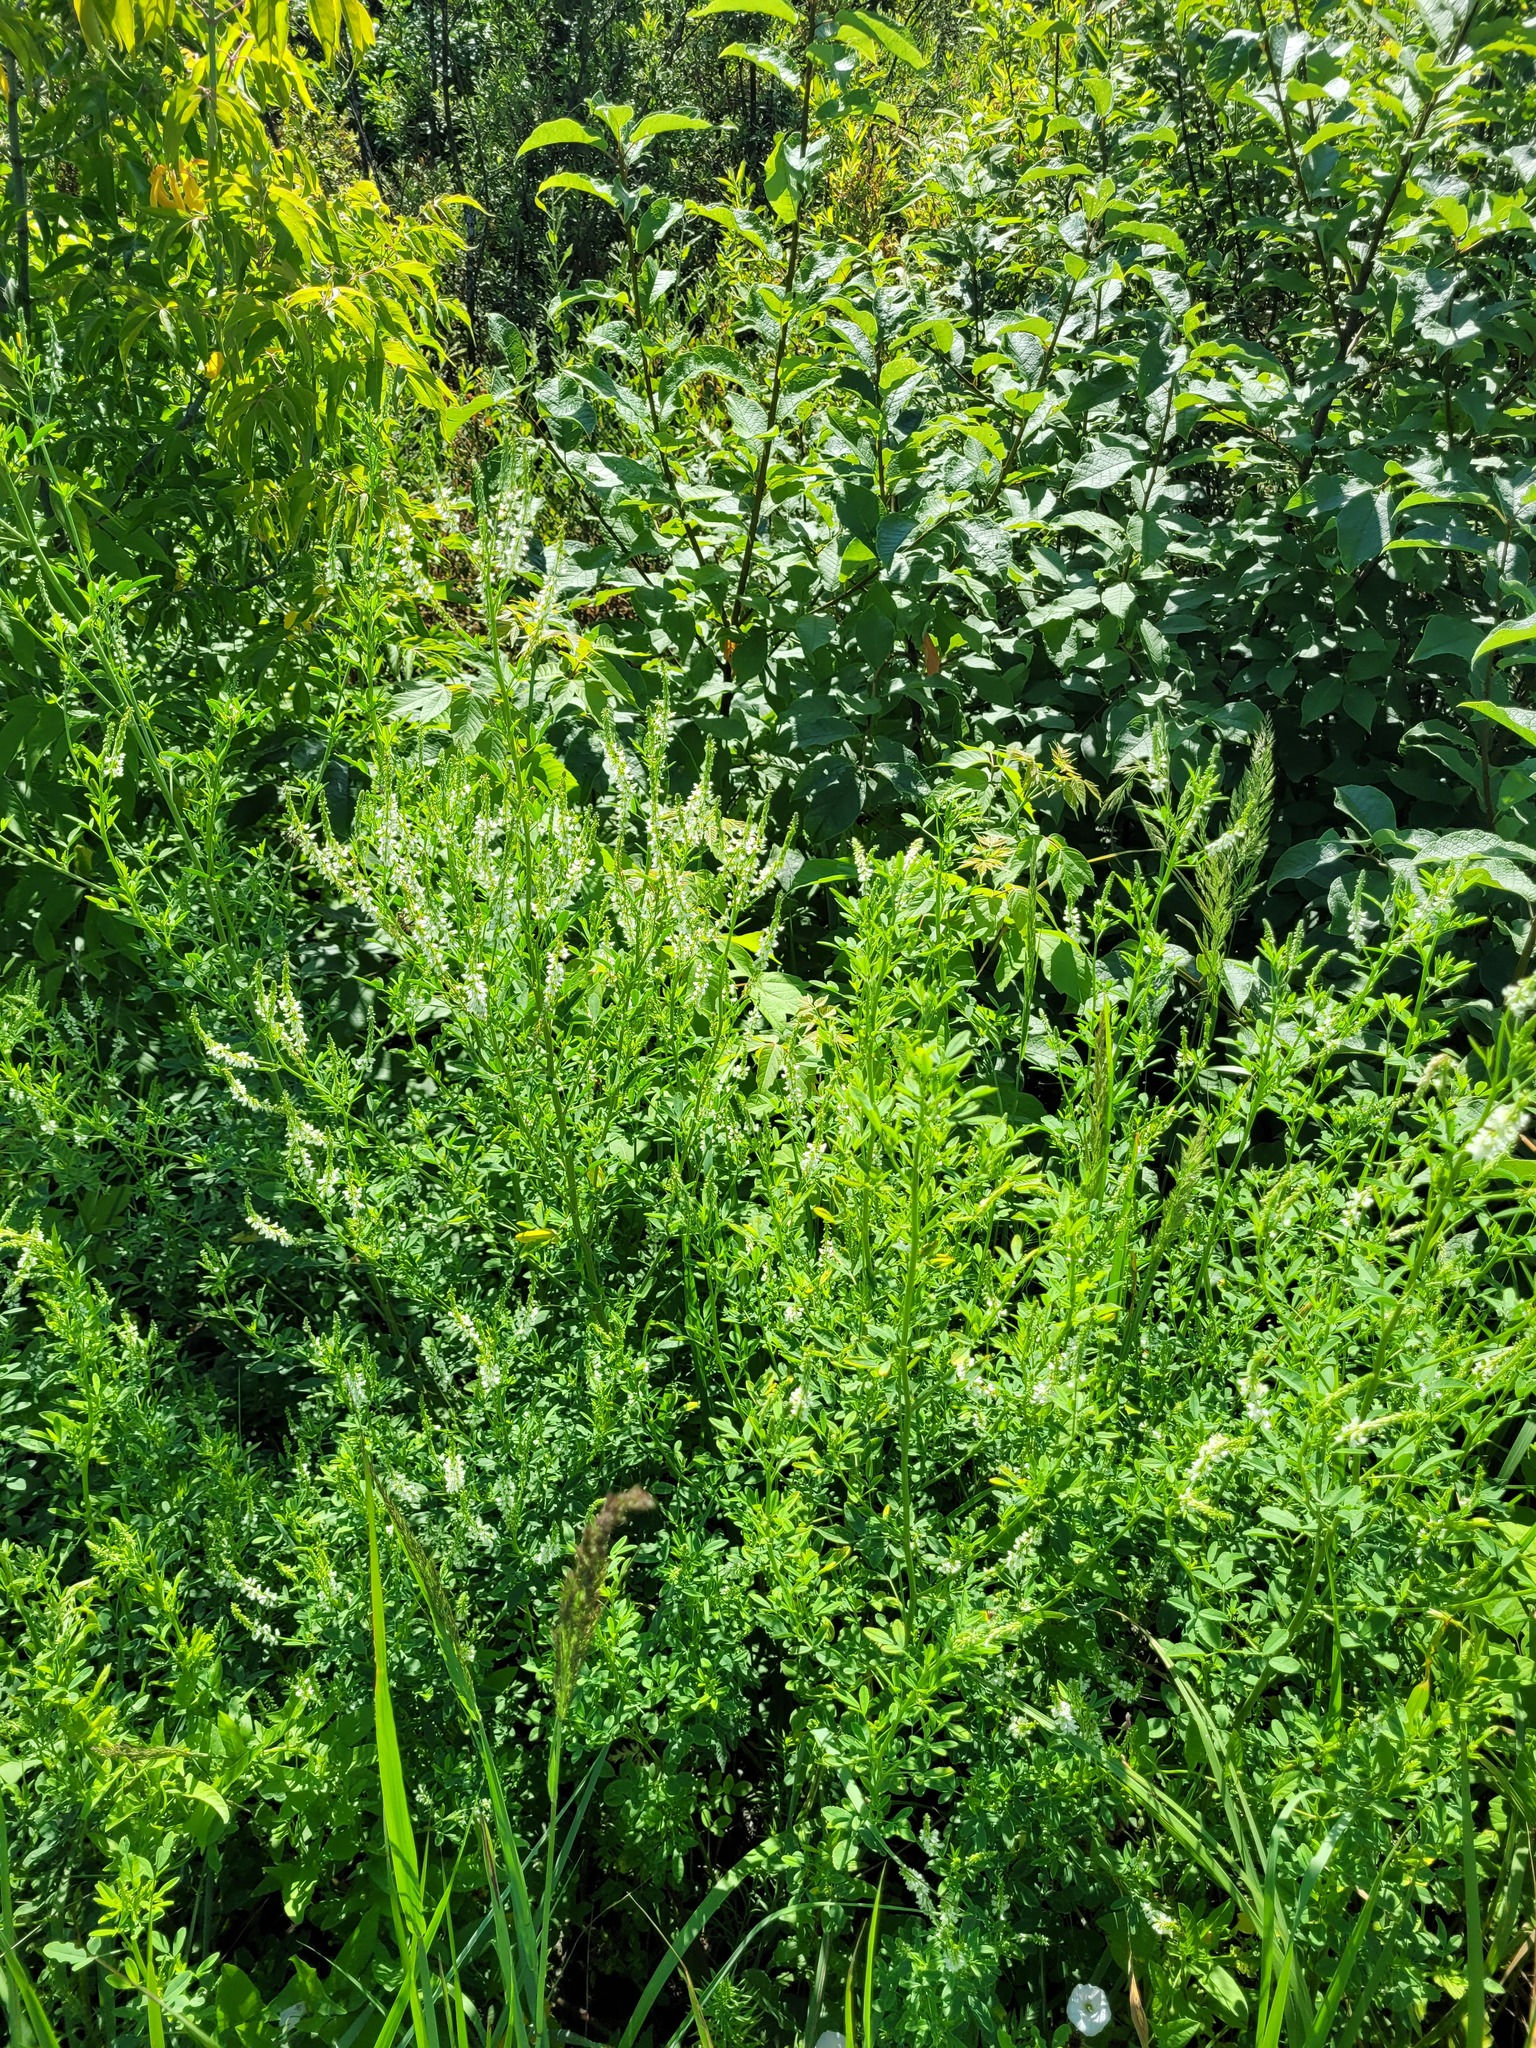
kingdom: Plantae
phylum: Tracheophyta
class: Magnoliopsida
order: Fabales
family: Fabaceae
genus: Melilotus
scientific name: Melilotus albus
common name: White melilot
